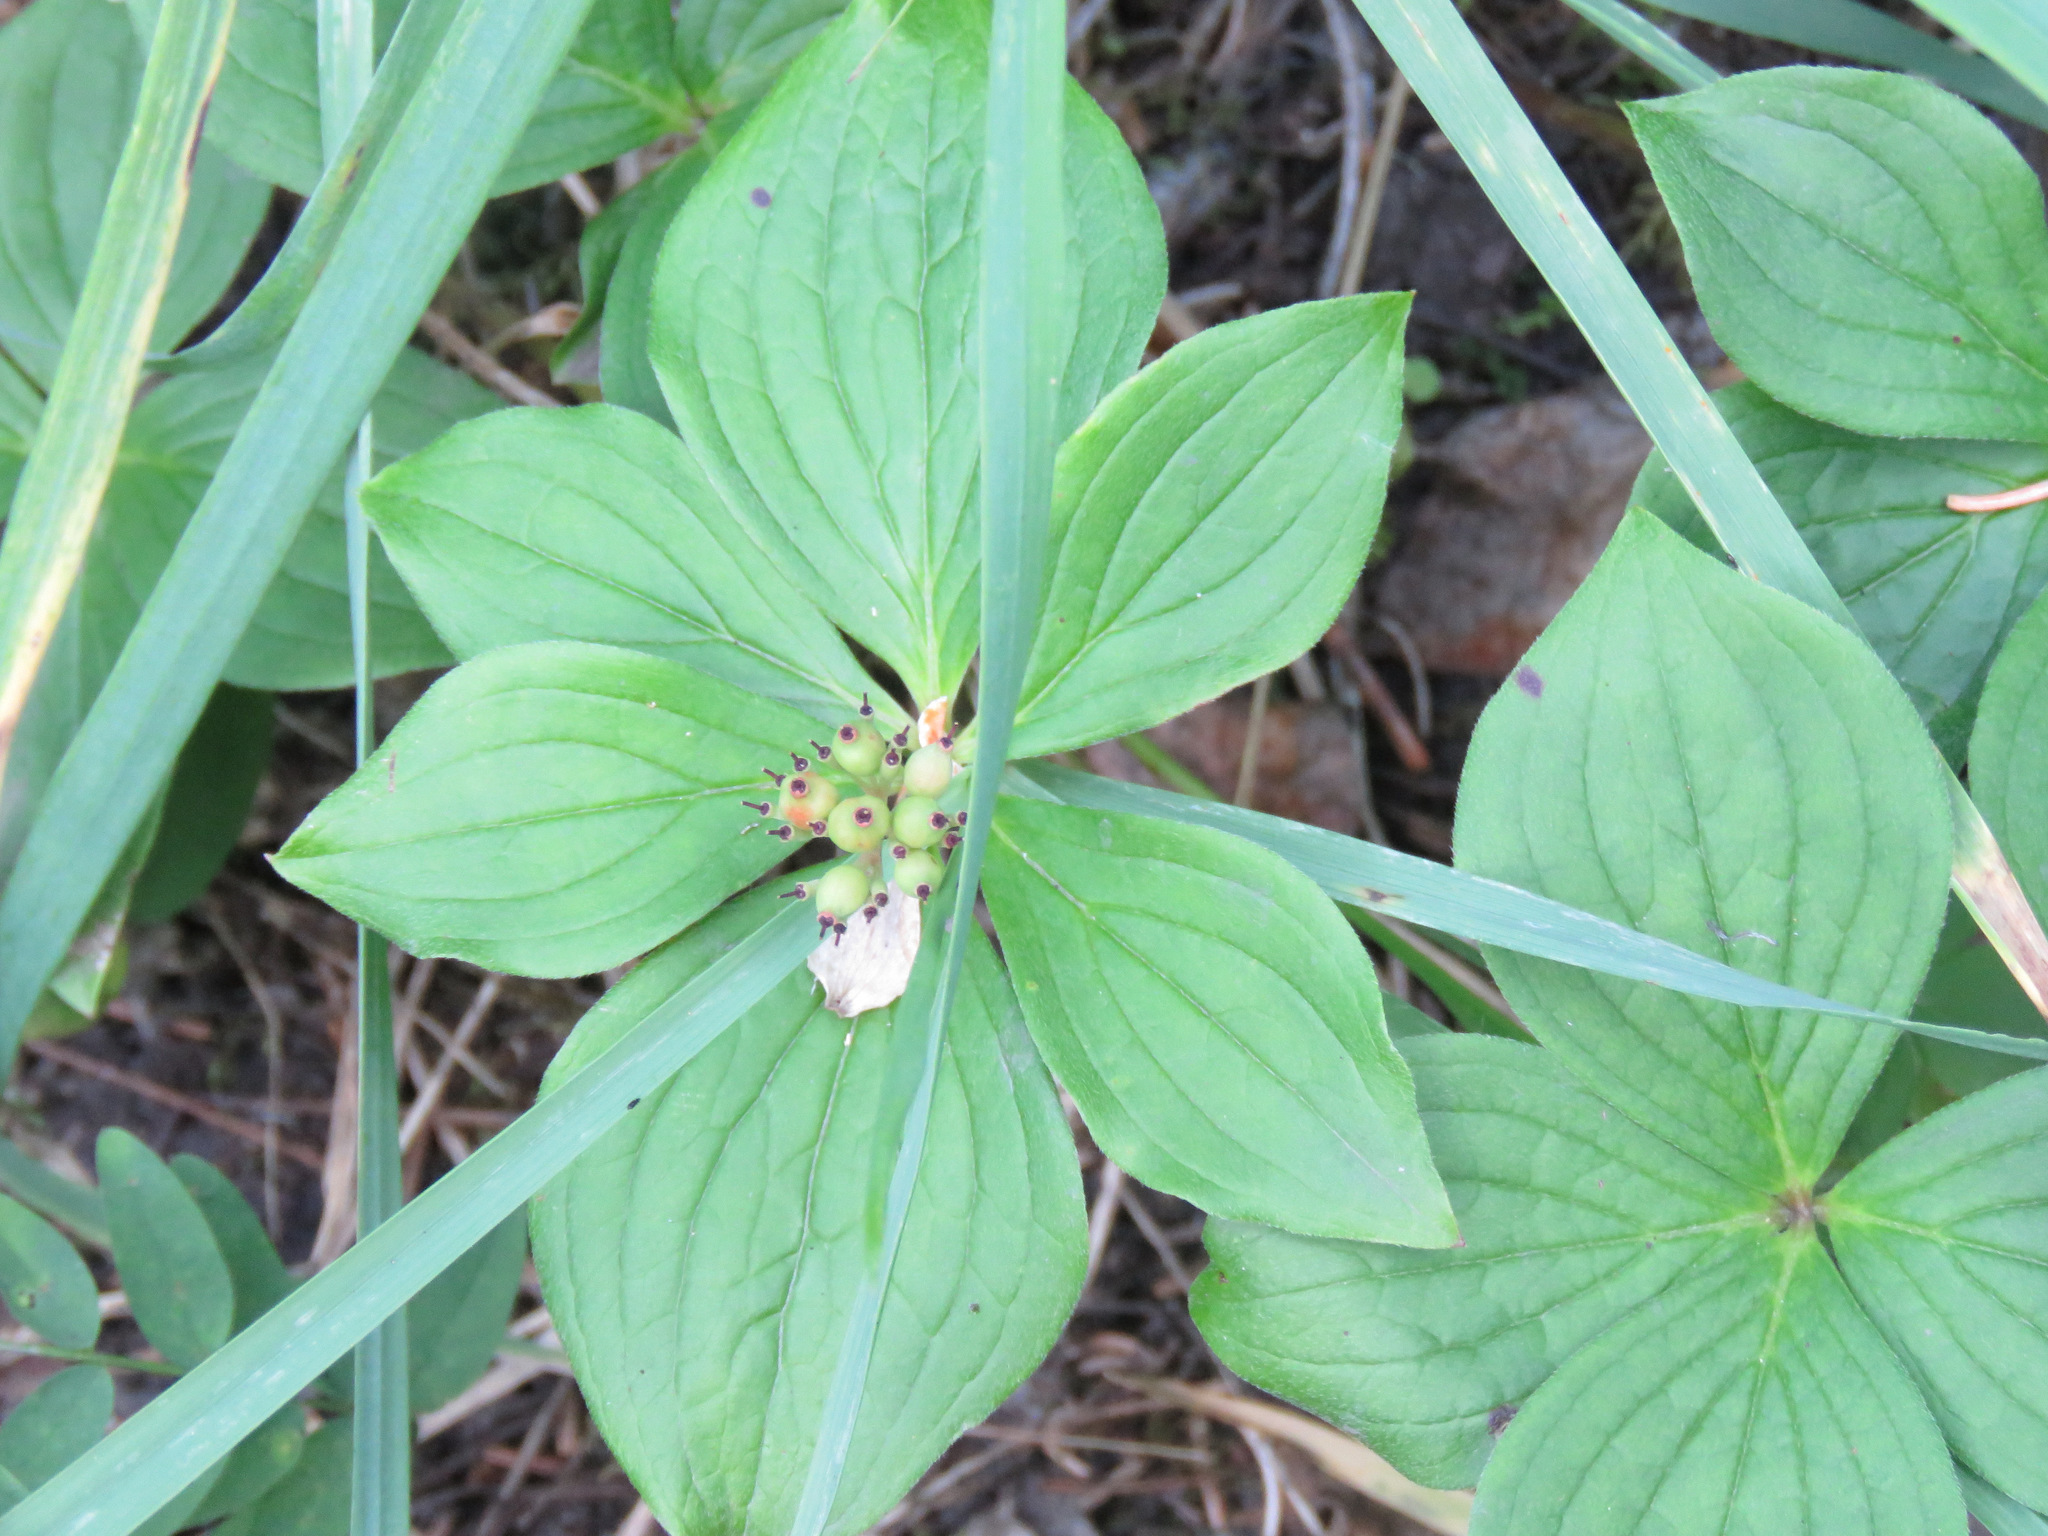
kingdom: Plantae
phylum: Tracheophyta
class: Magnoliopsida
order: Cornales
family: Cornaceae
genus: Cornus
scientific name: Cornus canadensis
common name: Creeping dogwood
